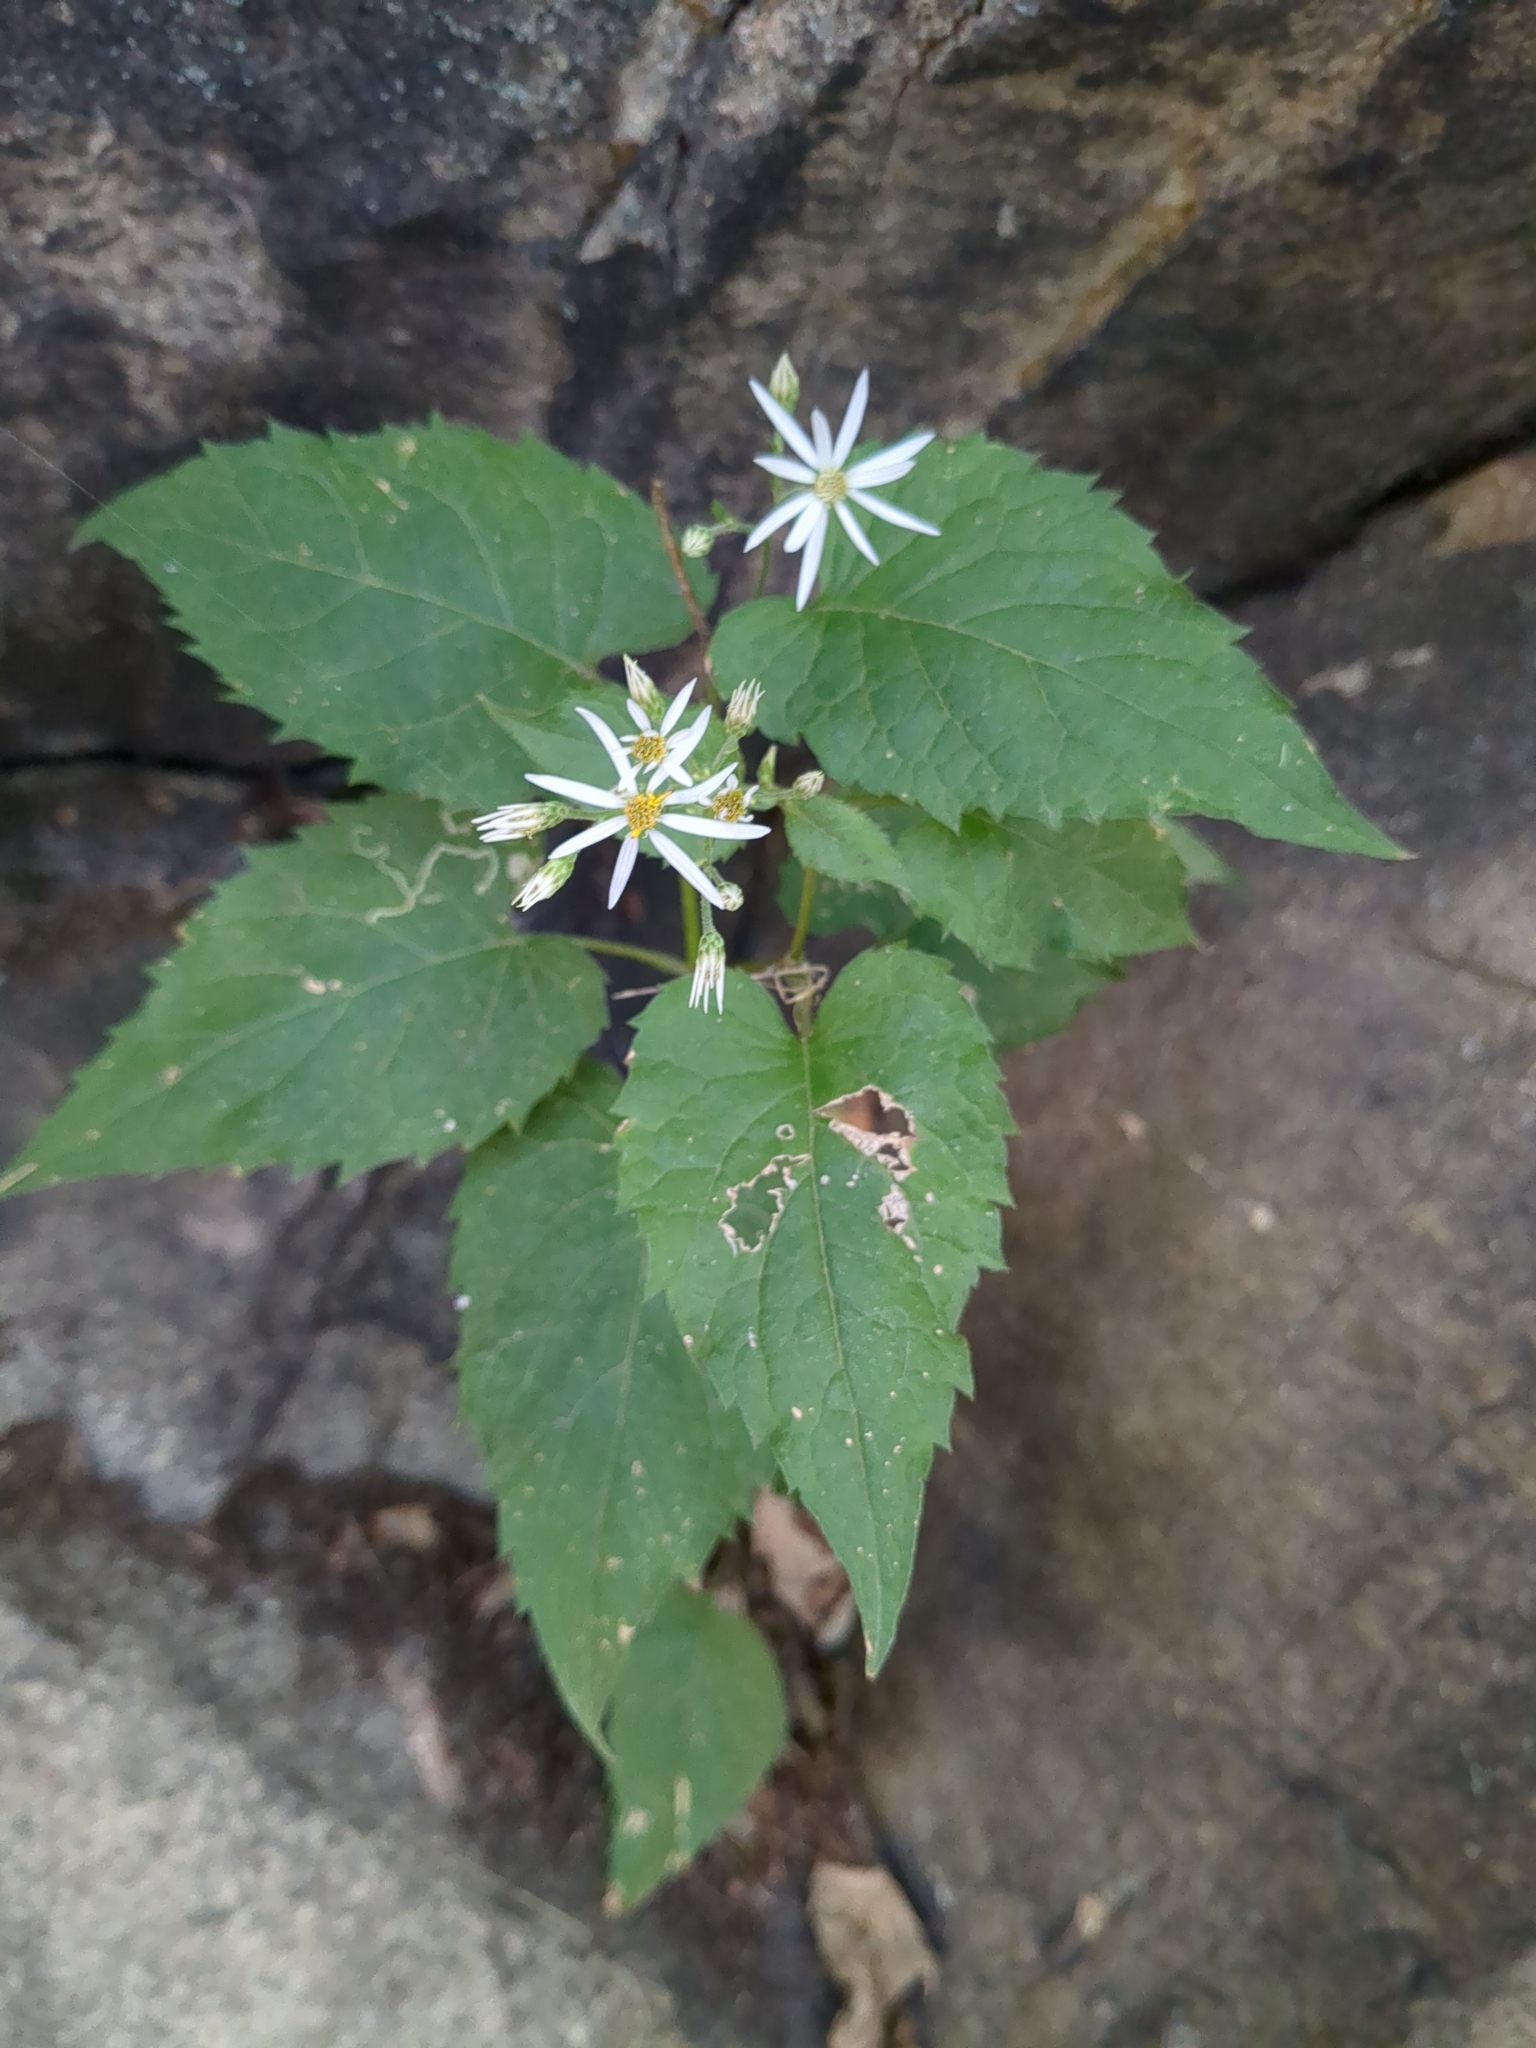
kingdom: Plantae
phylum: Tracheophyta
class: Magnoliopsida
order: Asterales
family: Asteraceae
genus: Eurybia
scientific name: Eurybia divaricata
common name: White wood aster
